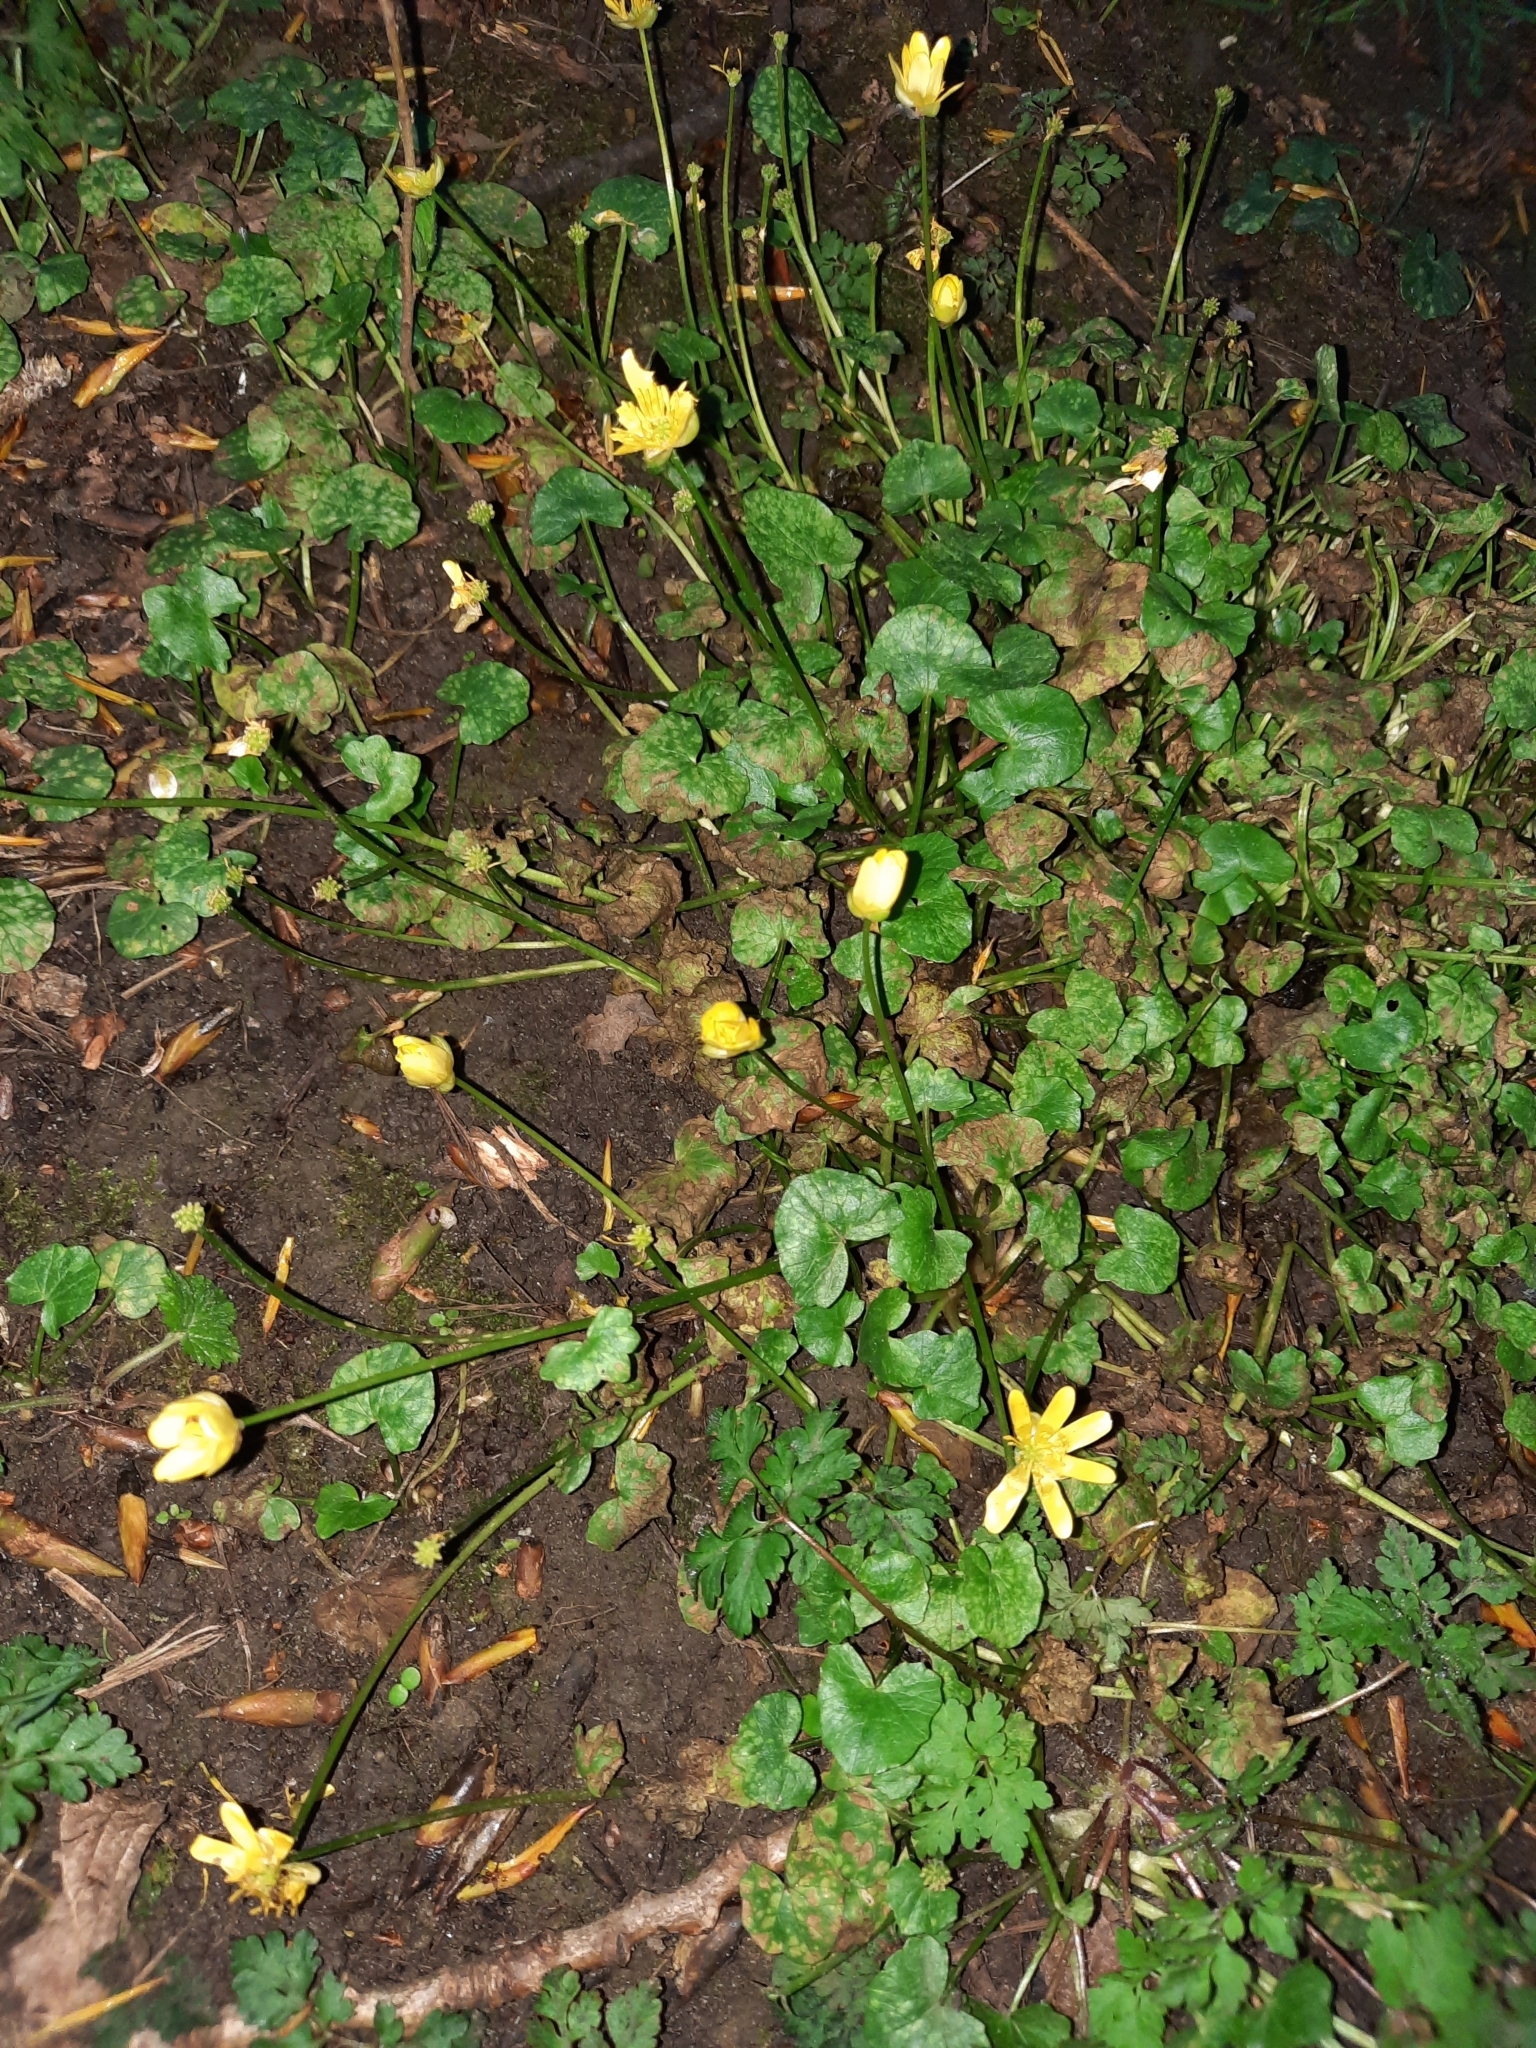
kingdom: Plantae
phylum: Tracheophyta
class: Magnoliopsida
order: Ranunculales
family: Ranunculaceae
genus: Ficaria
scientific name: Ficaria verna
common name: Lesser celandine
